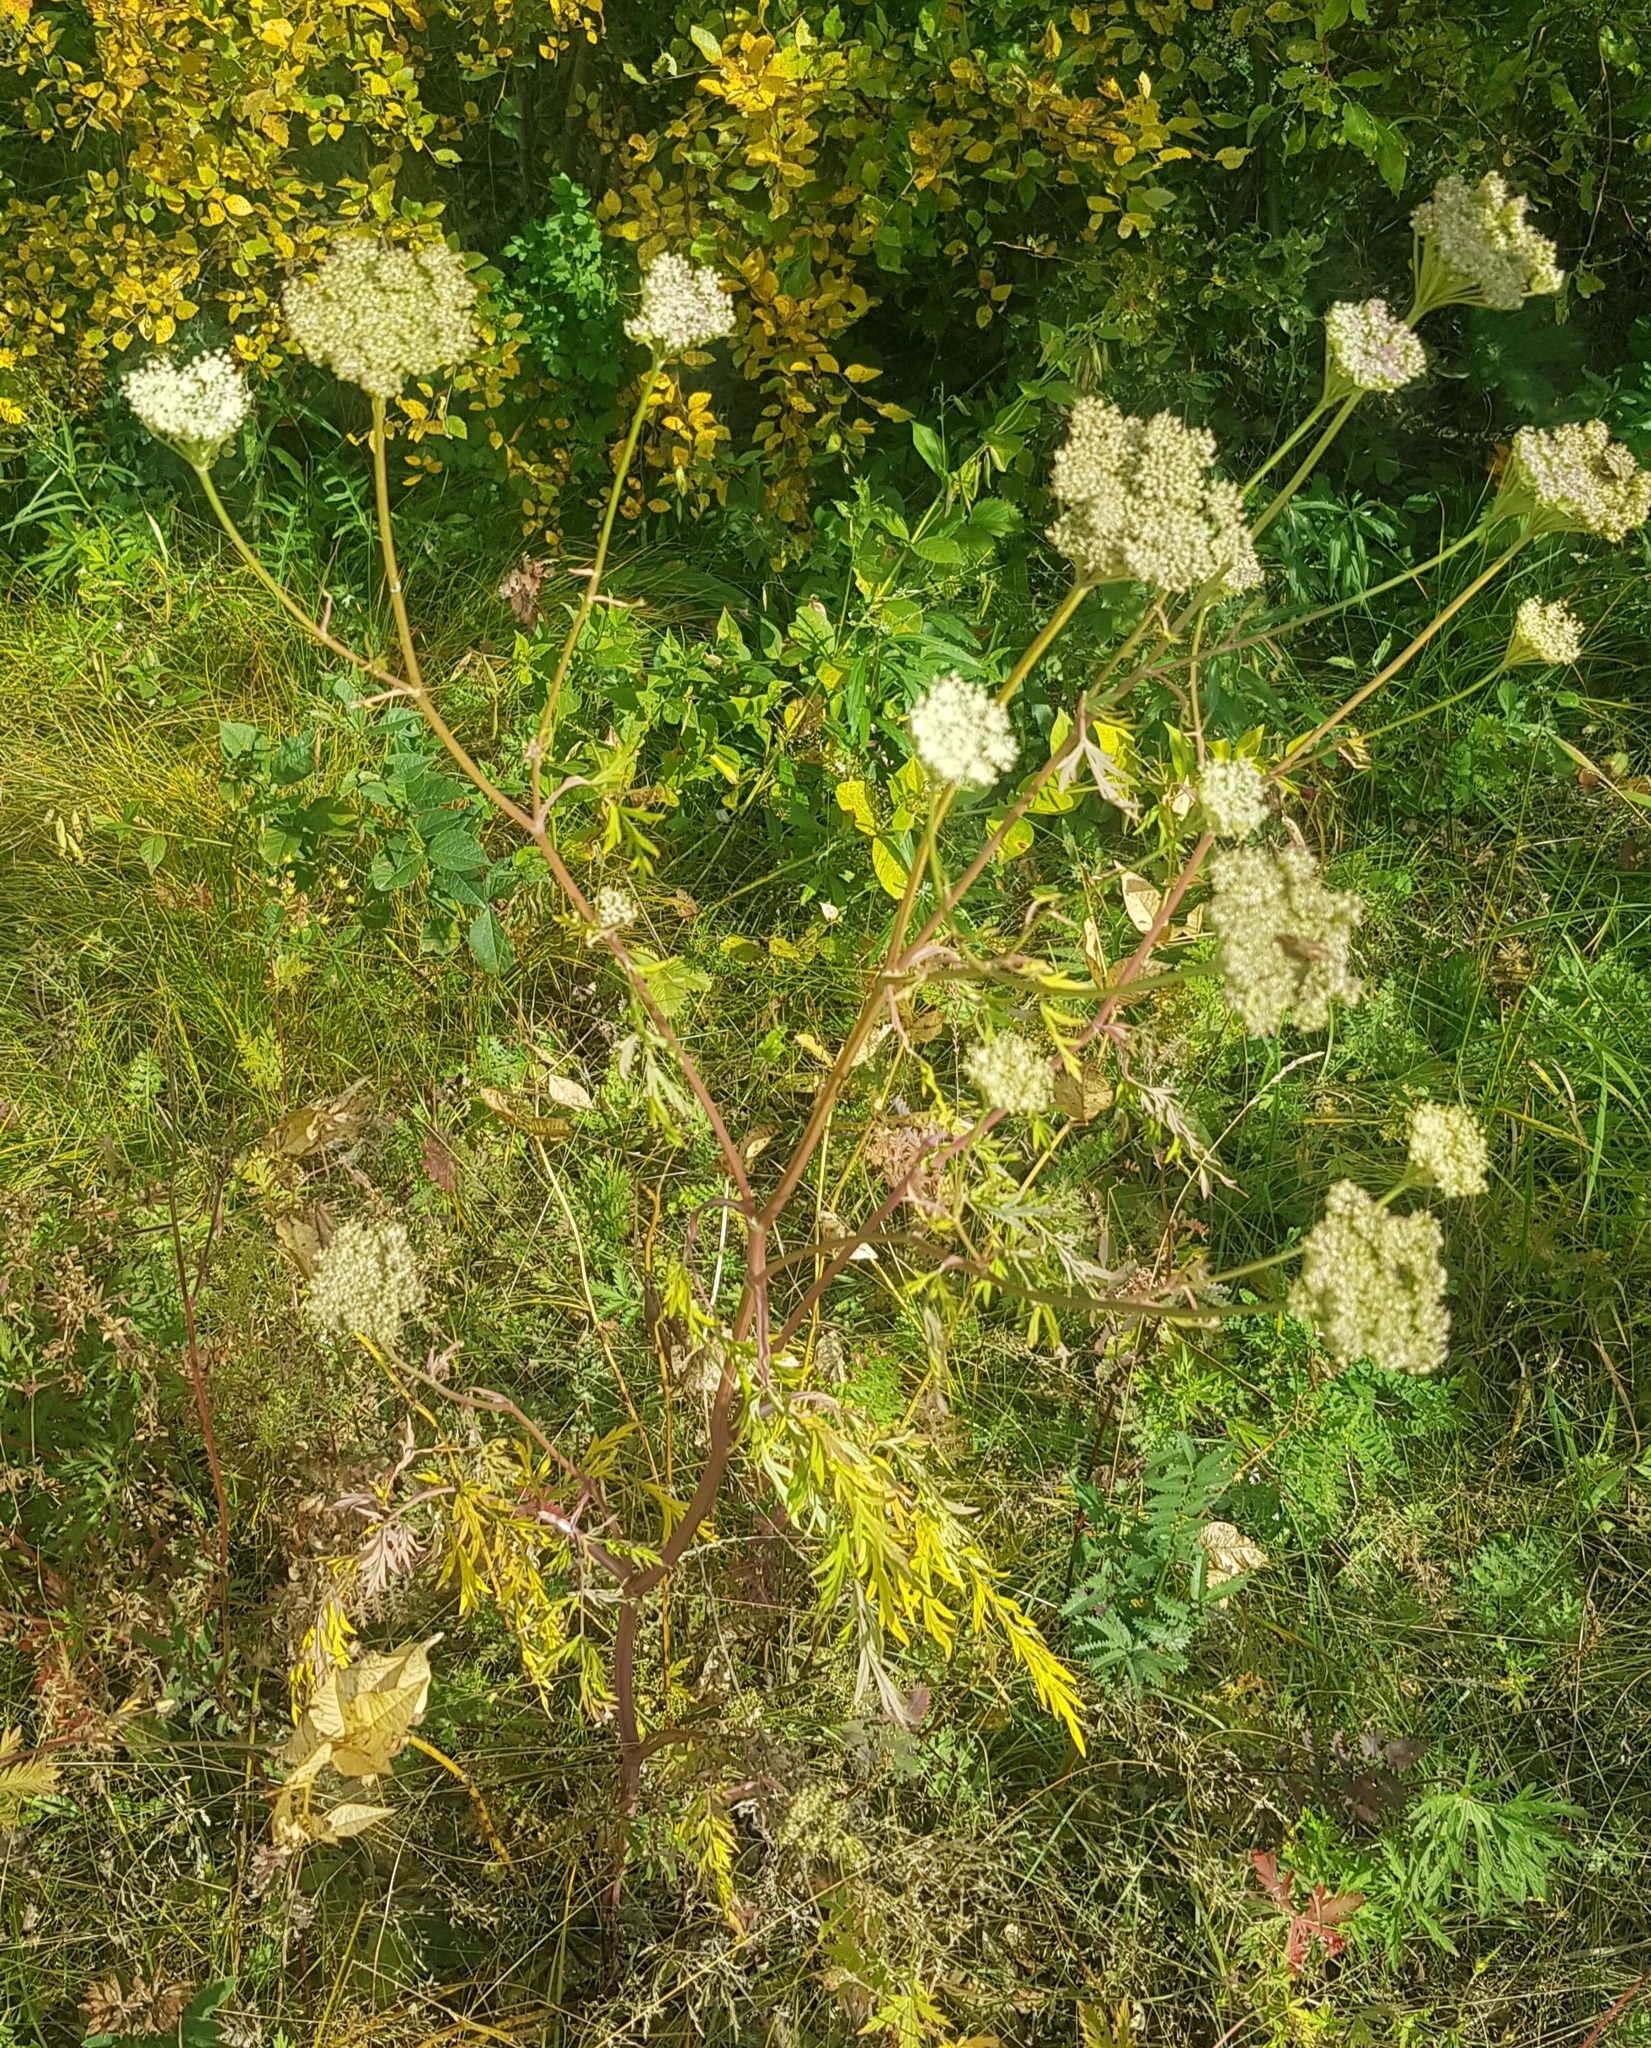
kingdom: Plantae
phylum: Tracheophyta
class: Magnoliopsida
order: Apiales
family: Apiaceae
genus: Conioselinum
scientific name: Conioselinum tataricum
